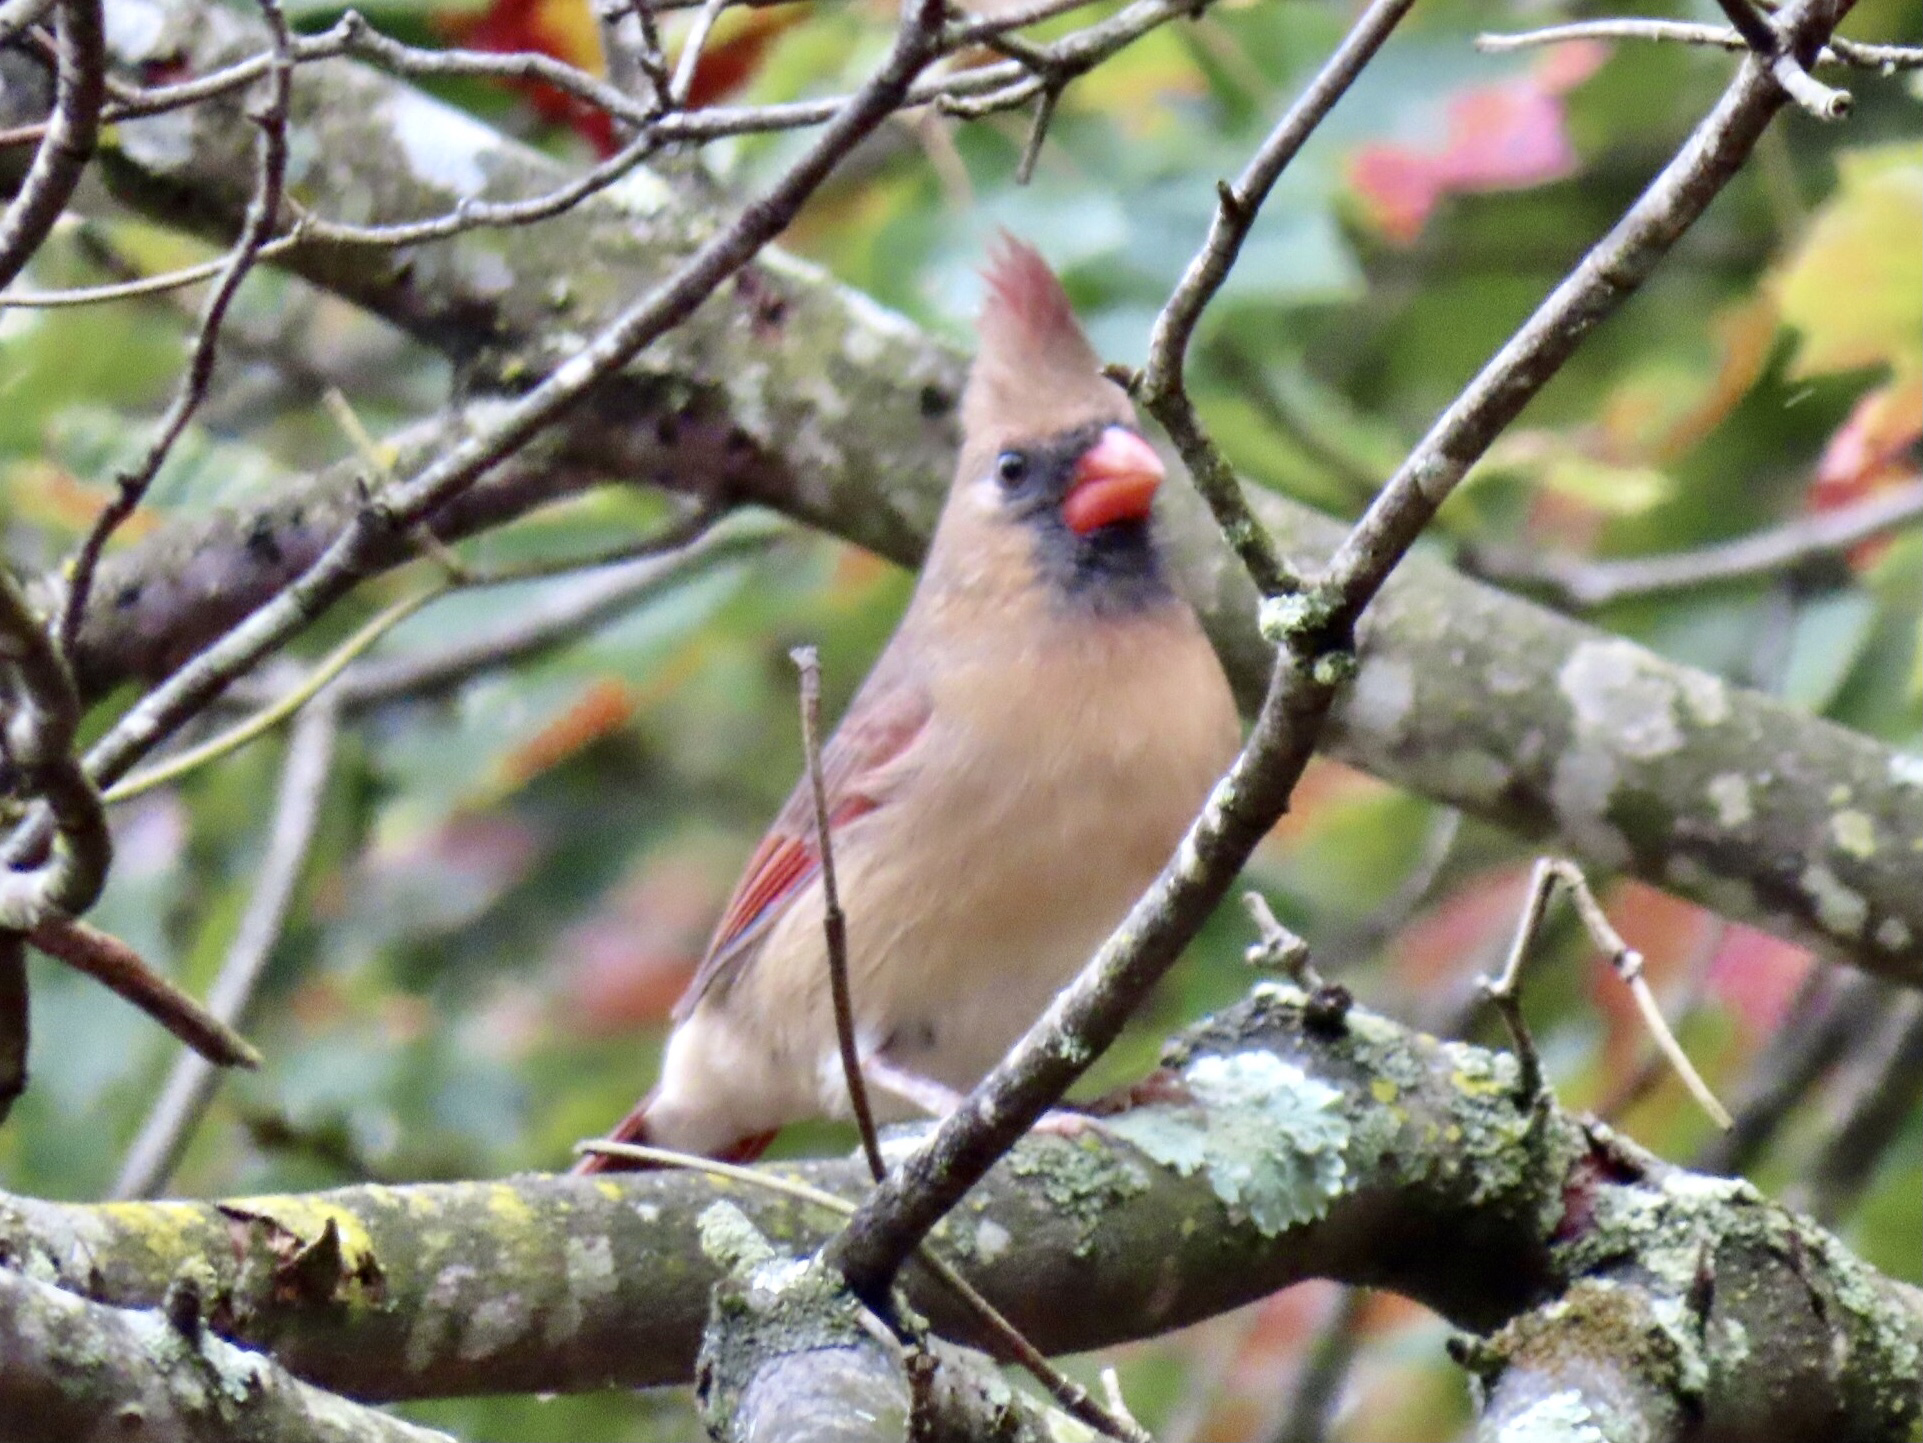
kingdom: Animalia
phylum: Chordata
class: Aves
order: Passeriformes
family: Cardinalidae
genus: Cardinalis
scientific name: Cardinalis cardinalis
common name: Northern cardinal
